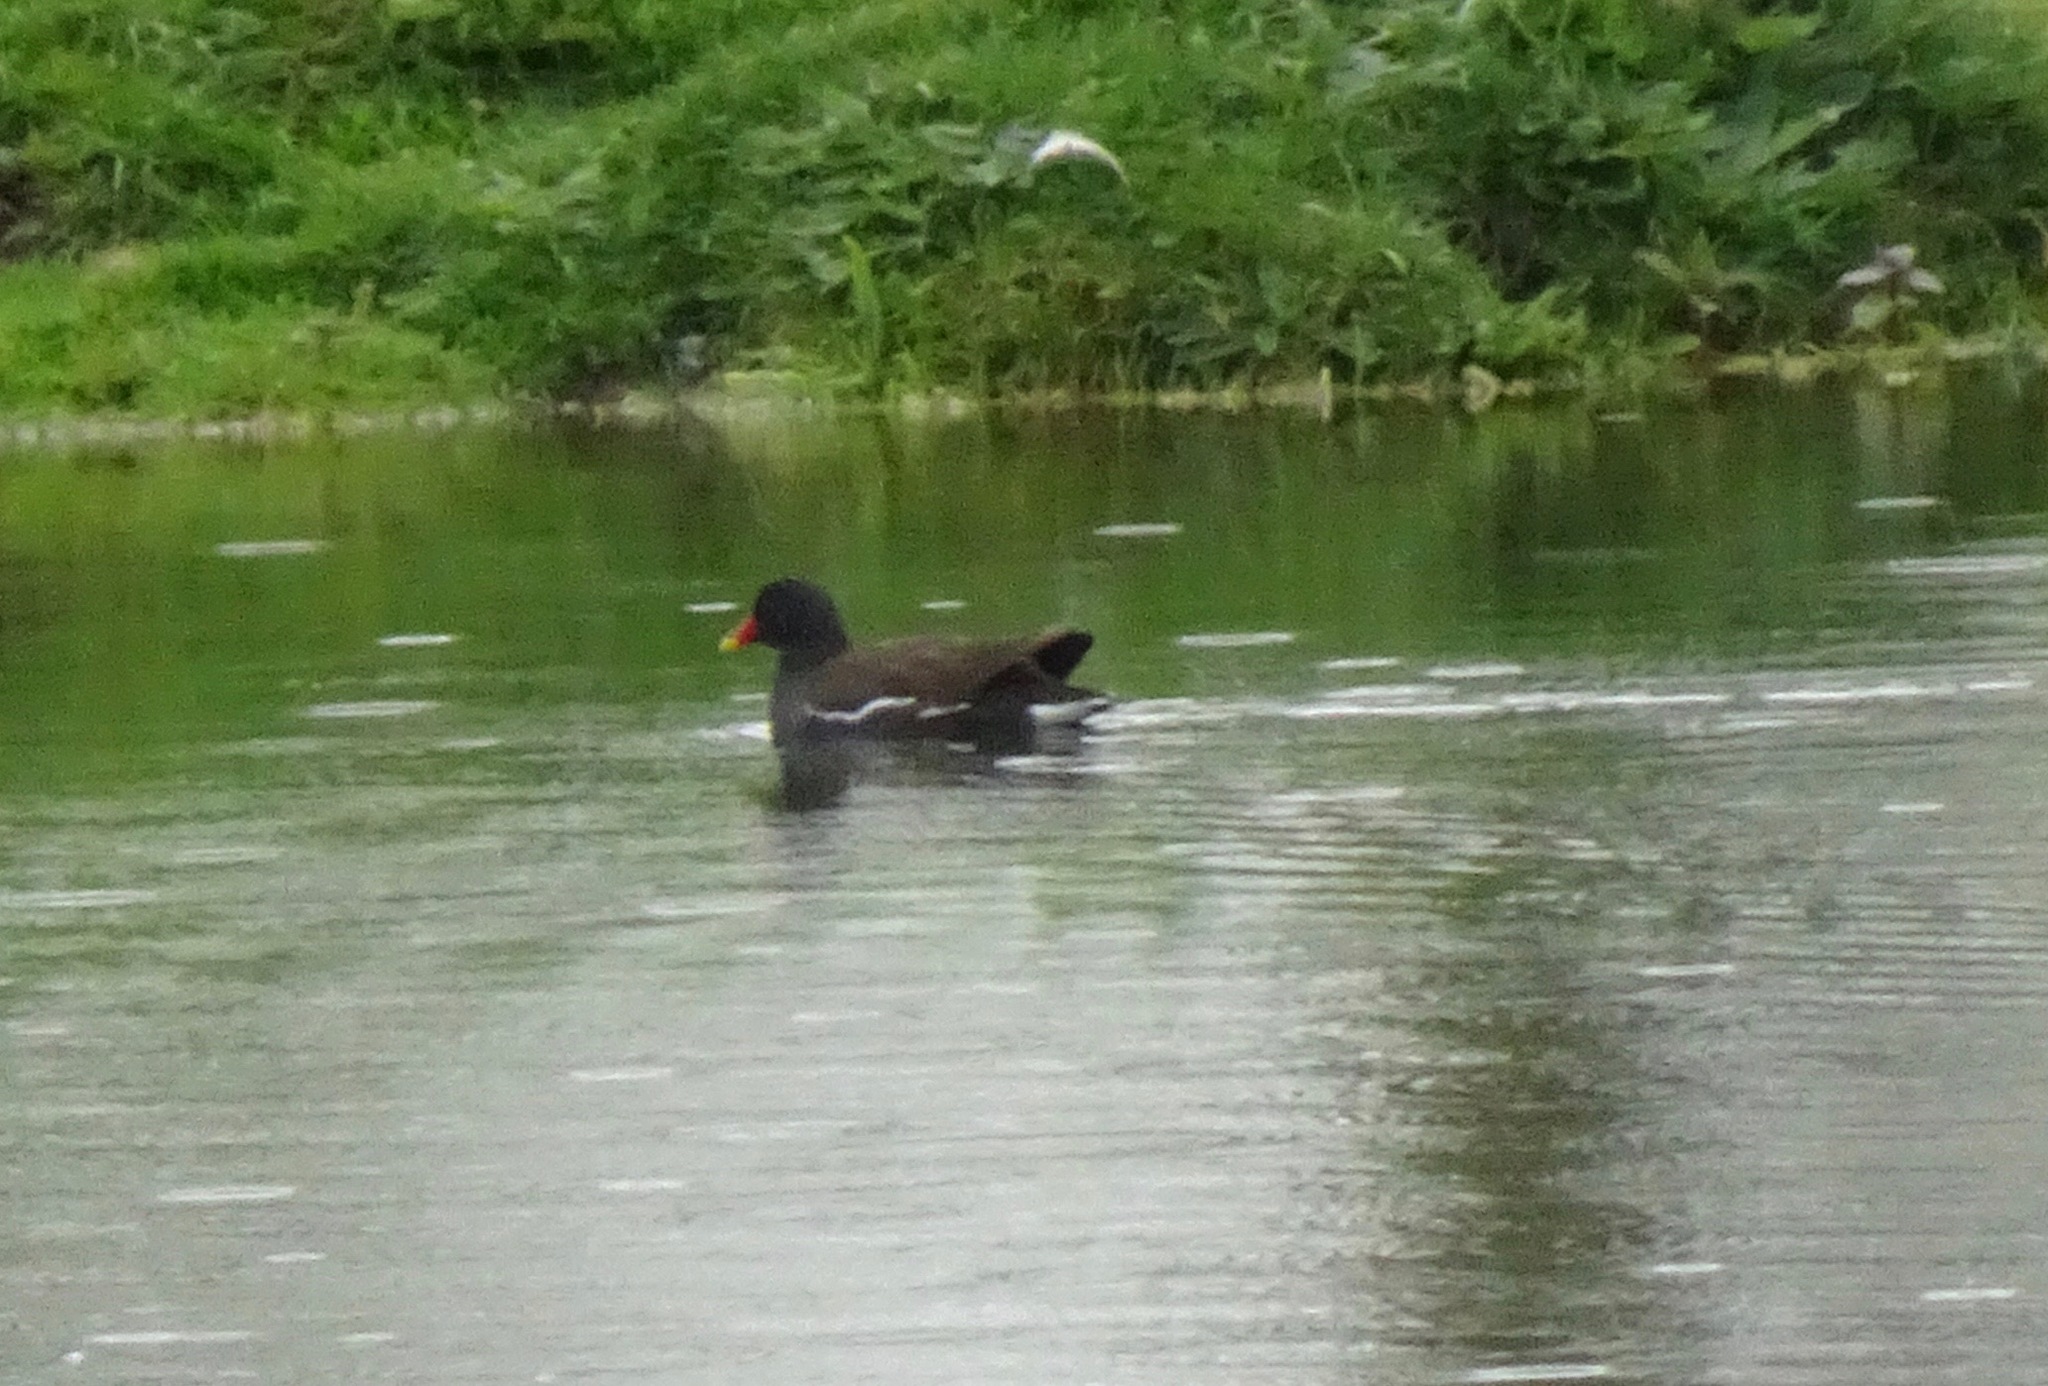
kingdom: Animalia
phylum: Chordata
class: Aves
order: Gruiformes
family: Rallidae
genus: Gallinula
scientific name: Gallinula chloropus
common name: Common moorhen
